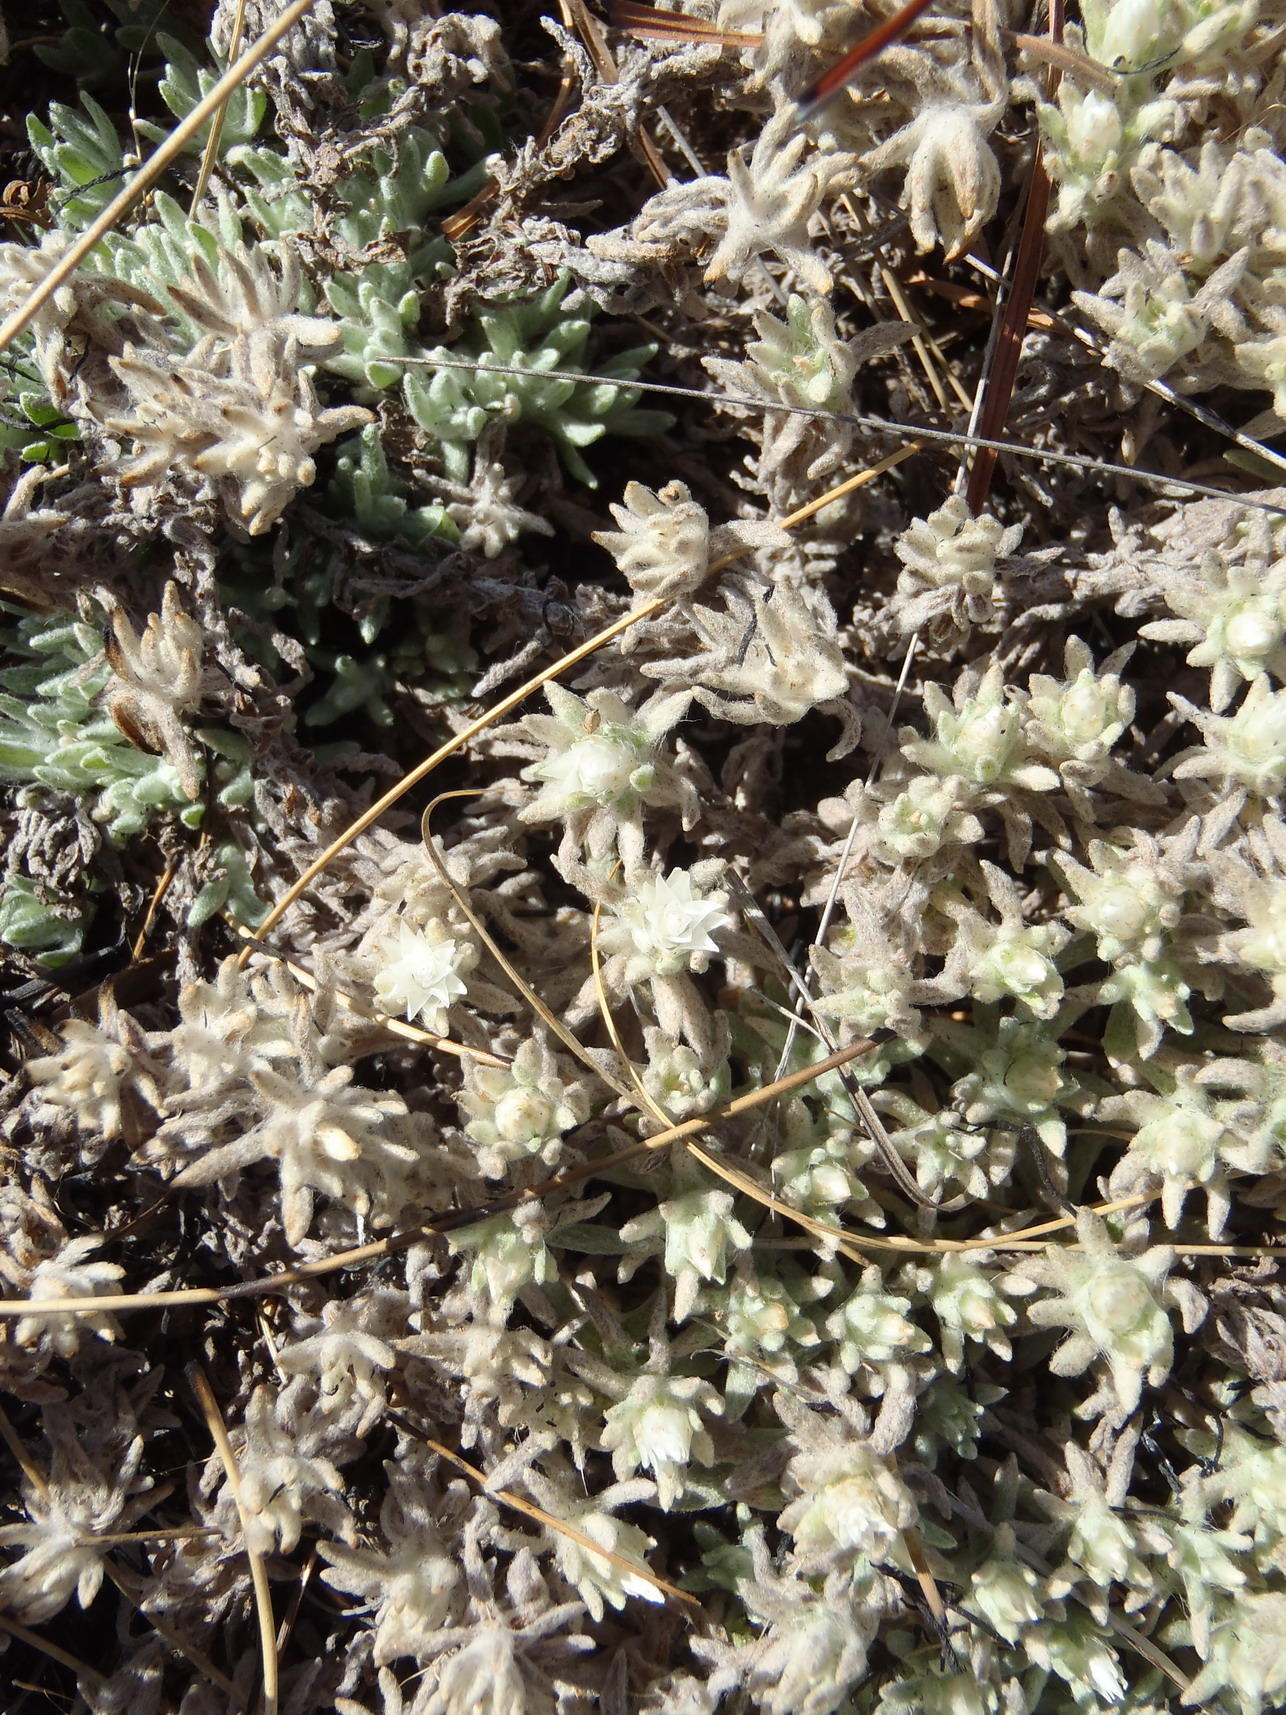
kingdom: Plantae
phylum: Tracheophyta
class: Magnoliopsida
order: Asterales
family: Asteraceae
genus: Helichrysum
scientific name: Helichrysum cerastioides
